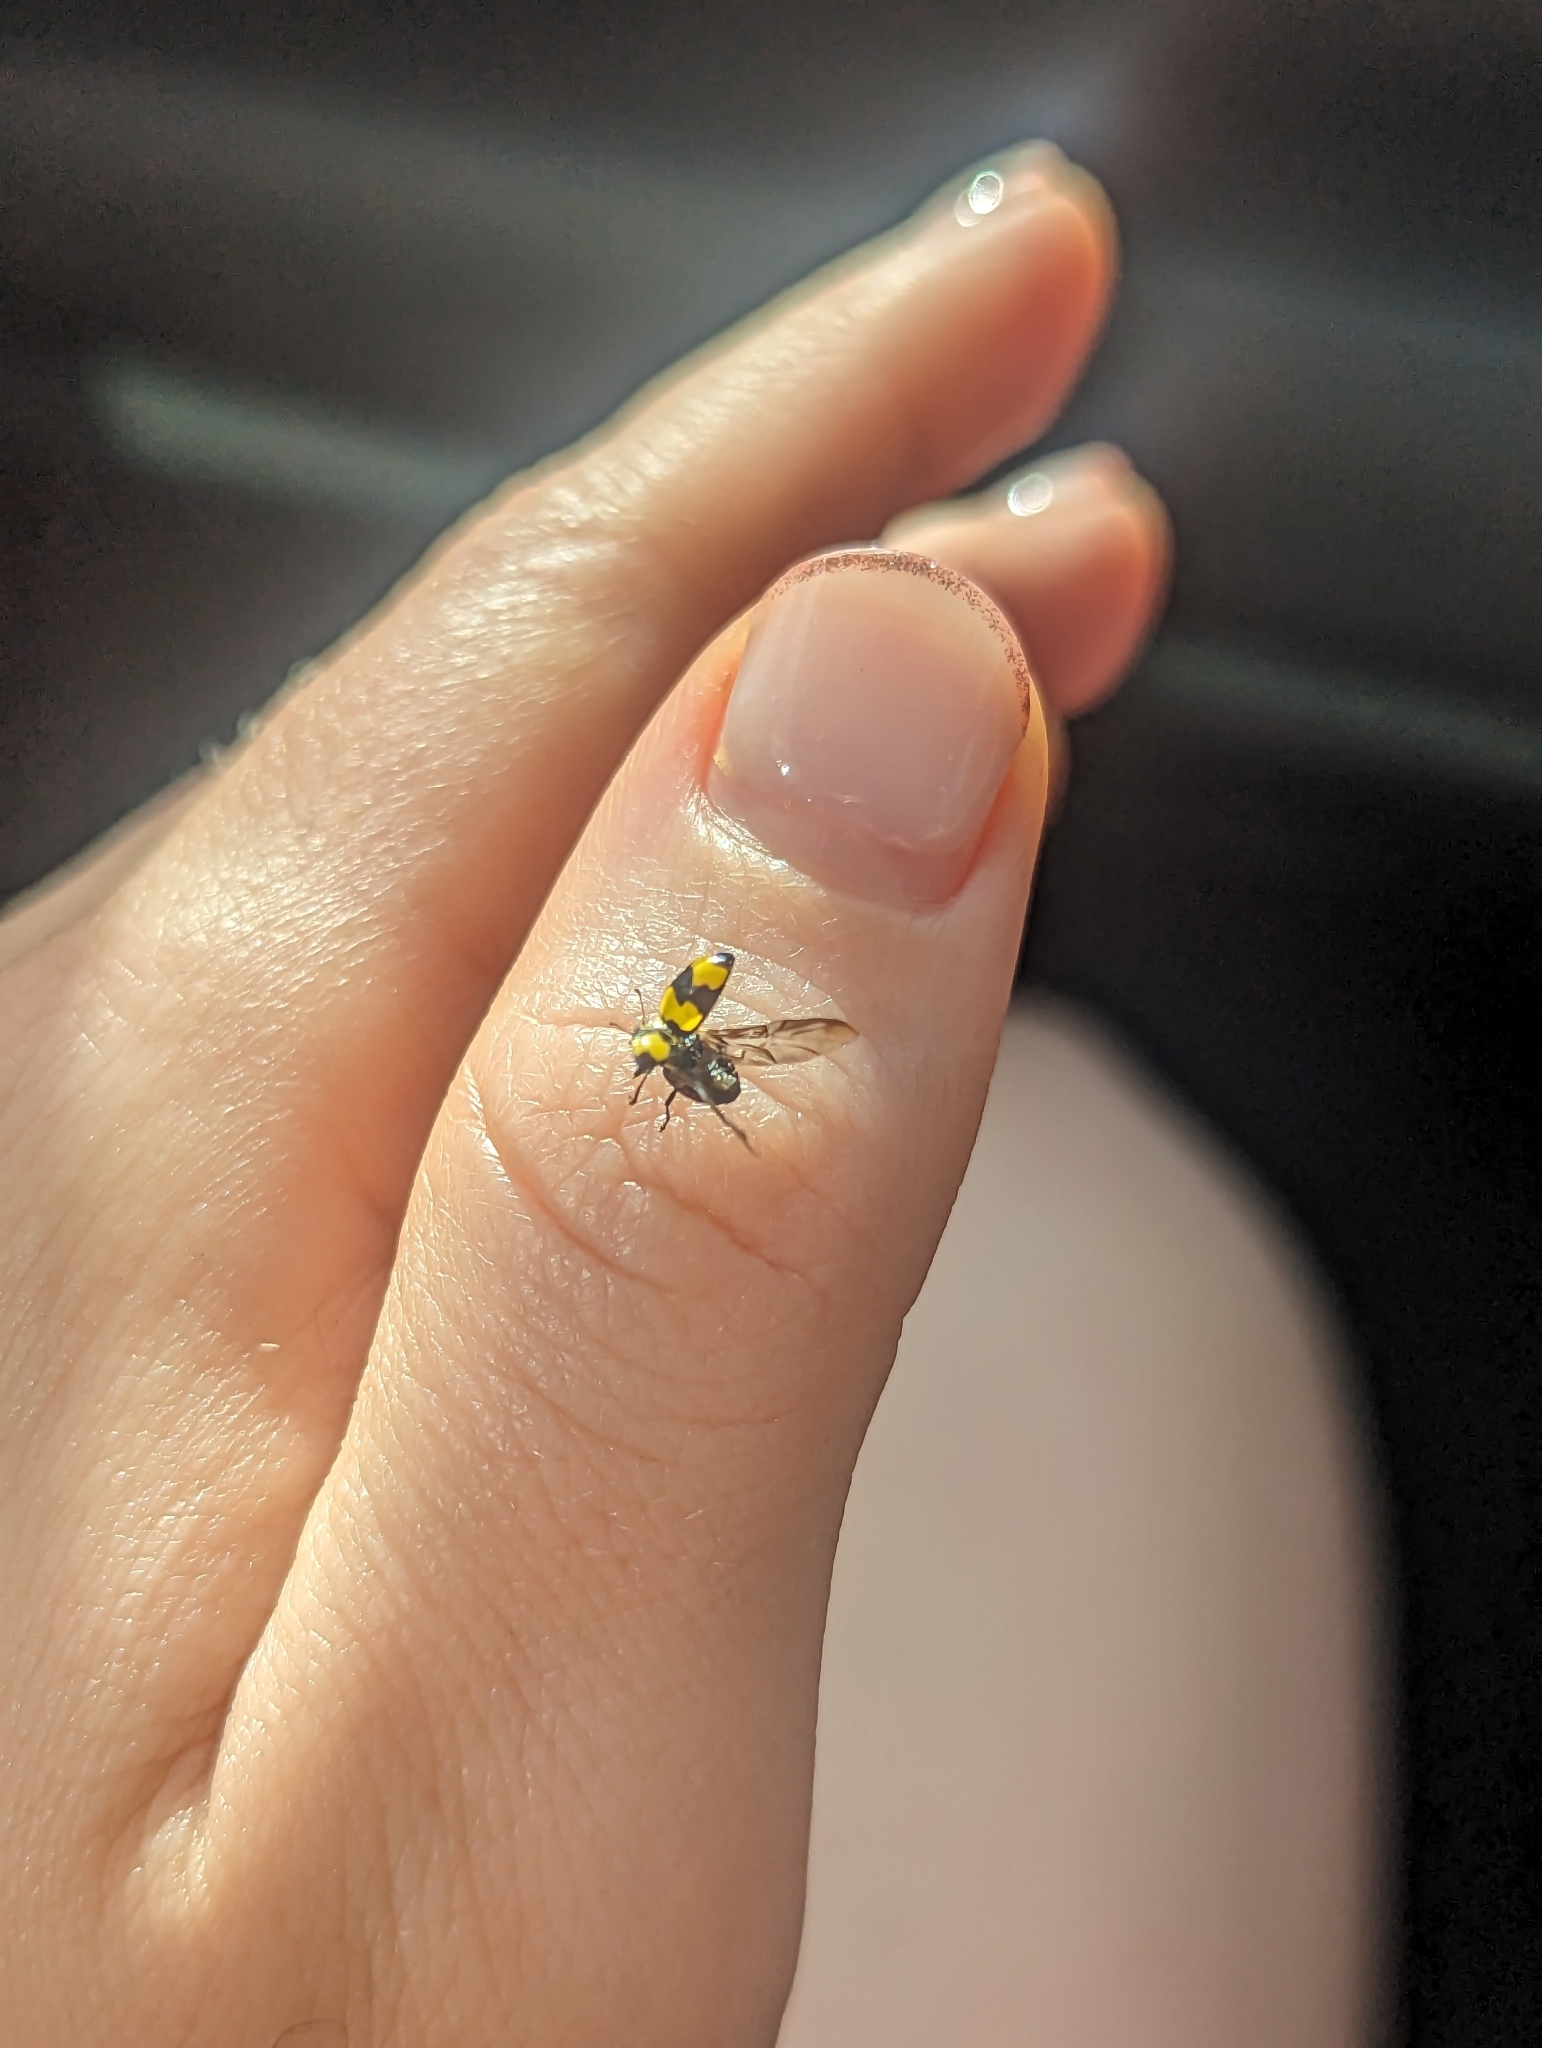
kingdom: Animalia
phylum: Arthropoda
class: Insecta
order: Coleoptera
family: Coccinellidae
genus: Illeis
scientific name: Illeis galbula
